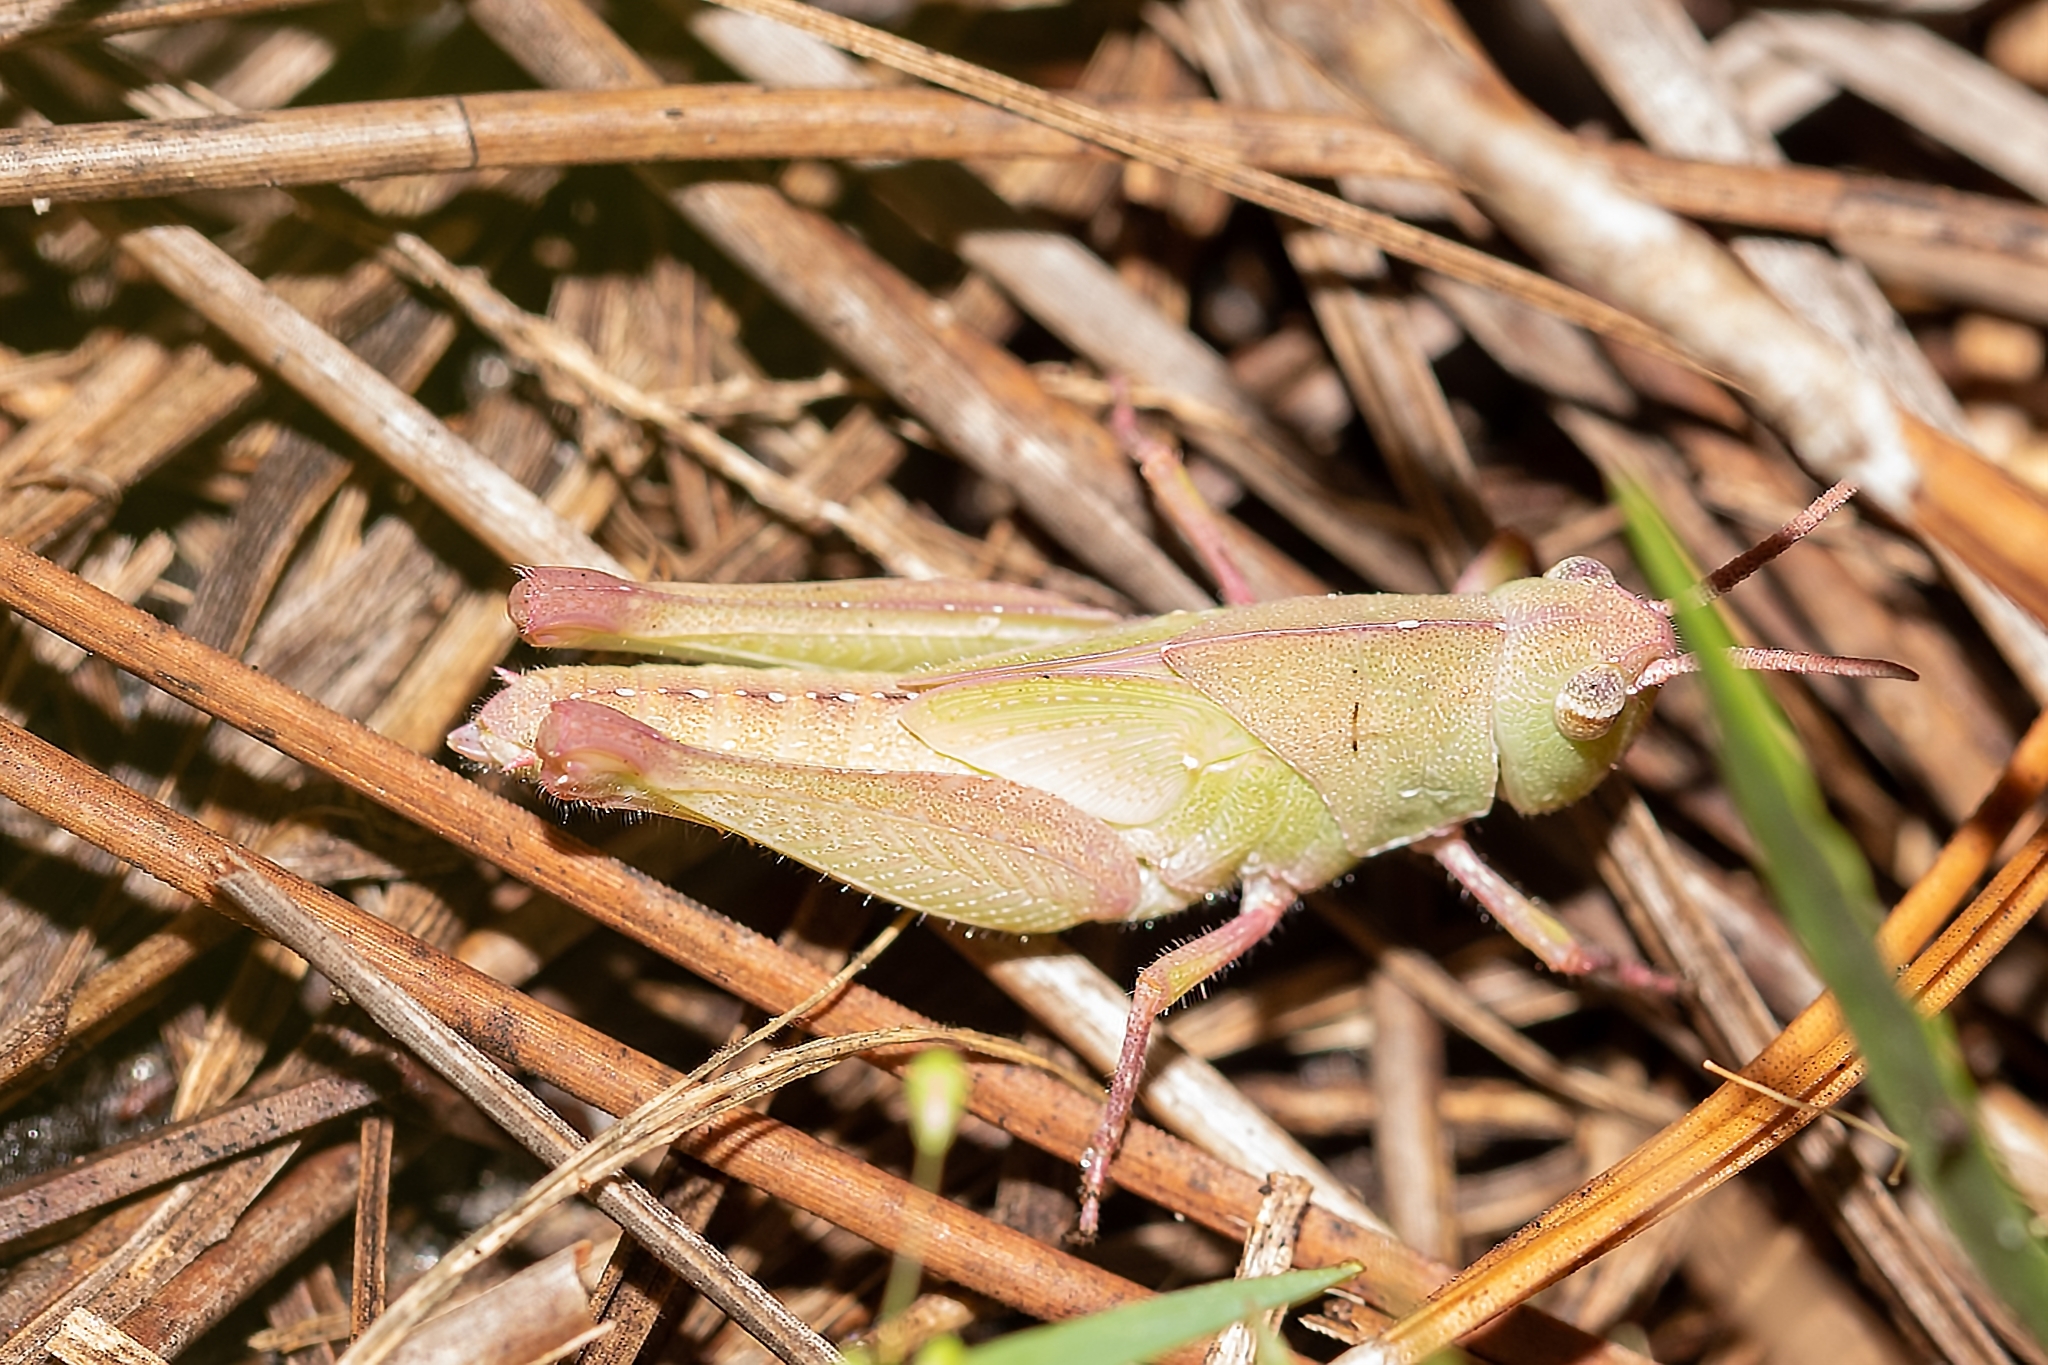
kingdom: Animalia
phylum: Arthropoda
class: Insecta
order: Orthoptera
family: Acrididae
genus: Chortophaga
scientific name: Chortophaga australior
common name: Southern green-striped grasshopper
